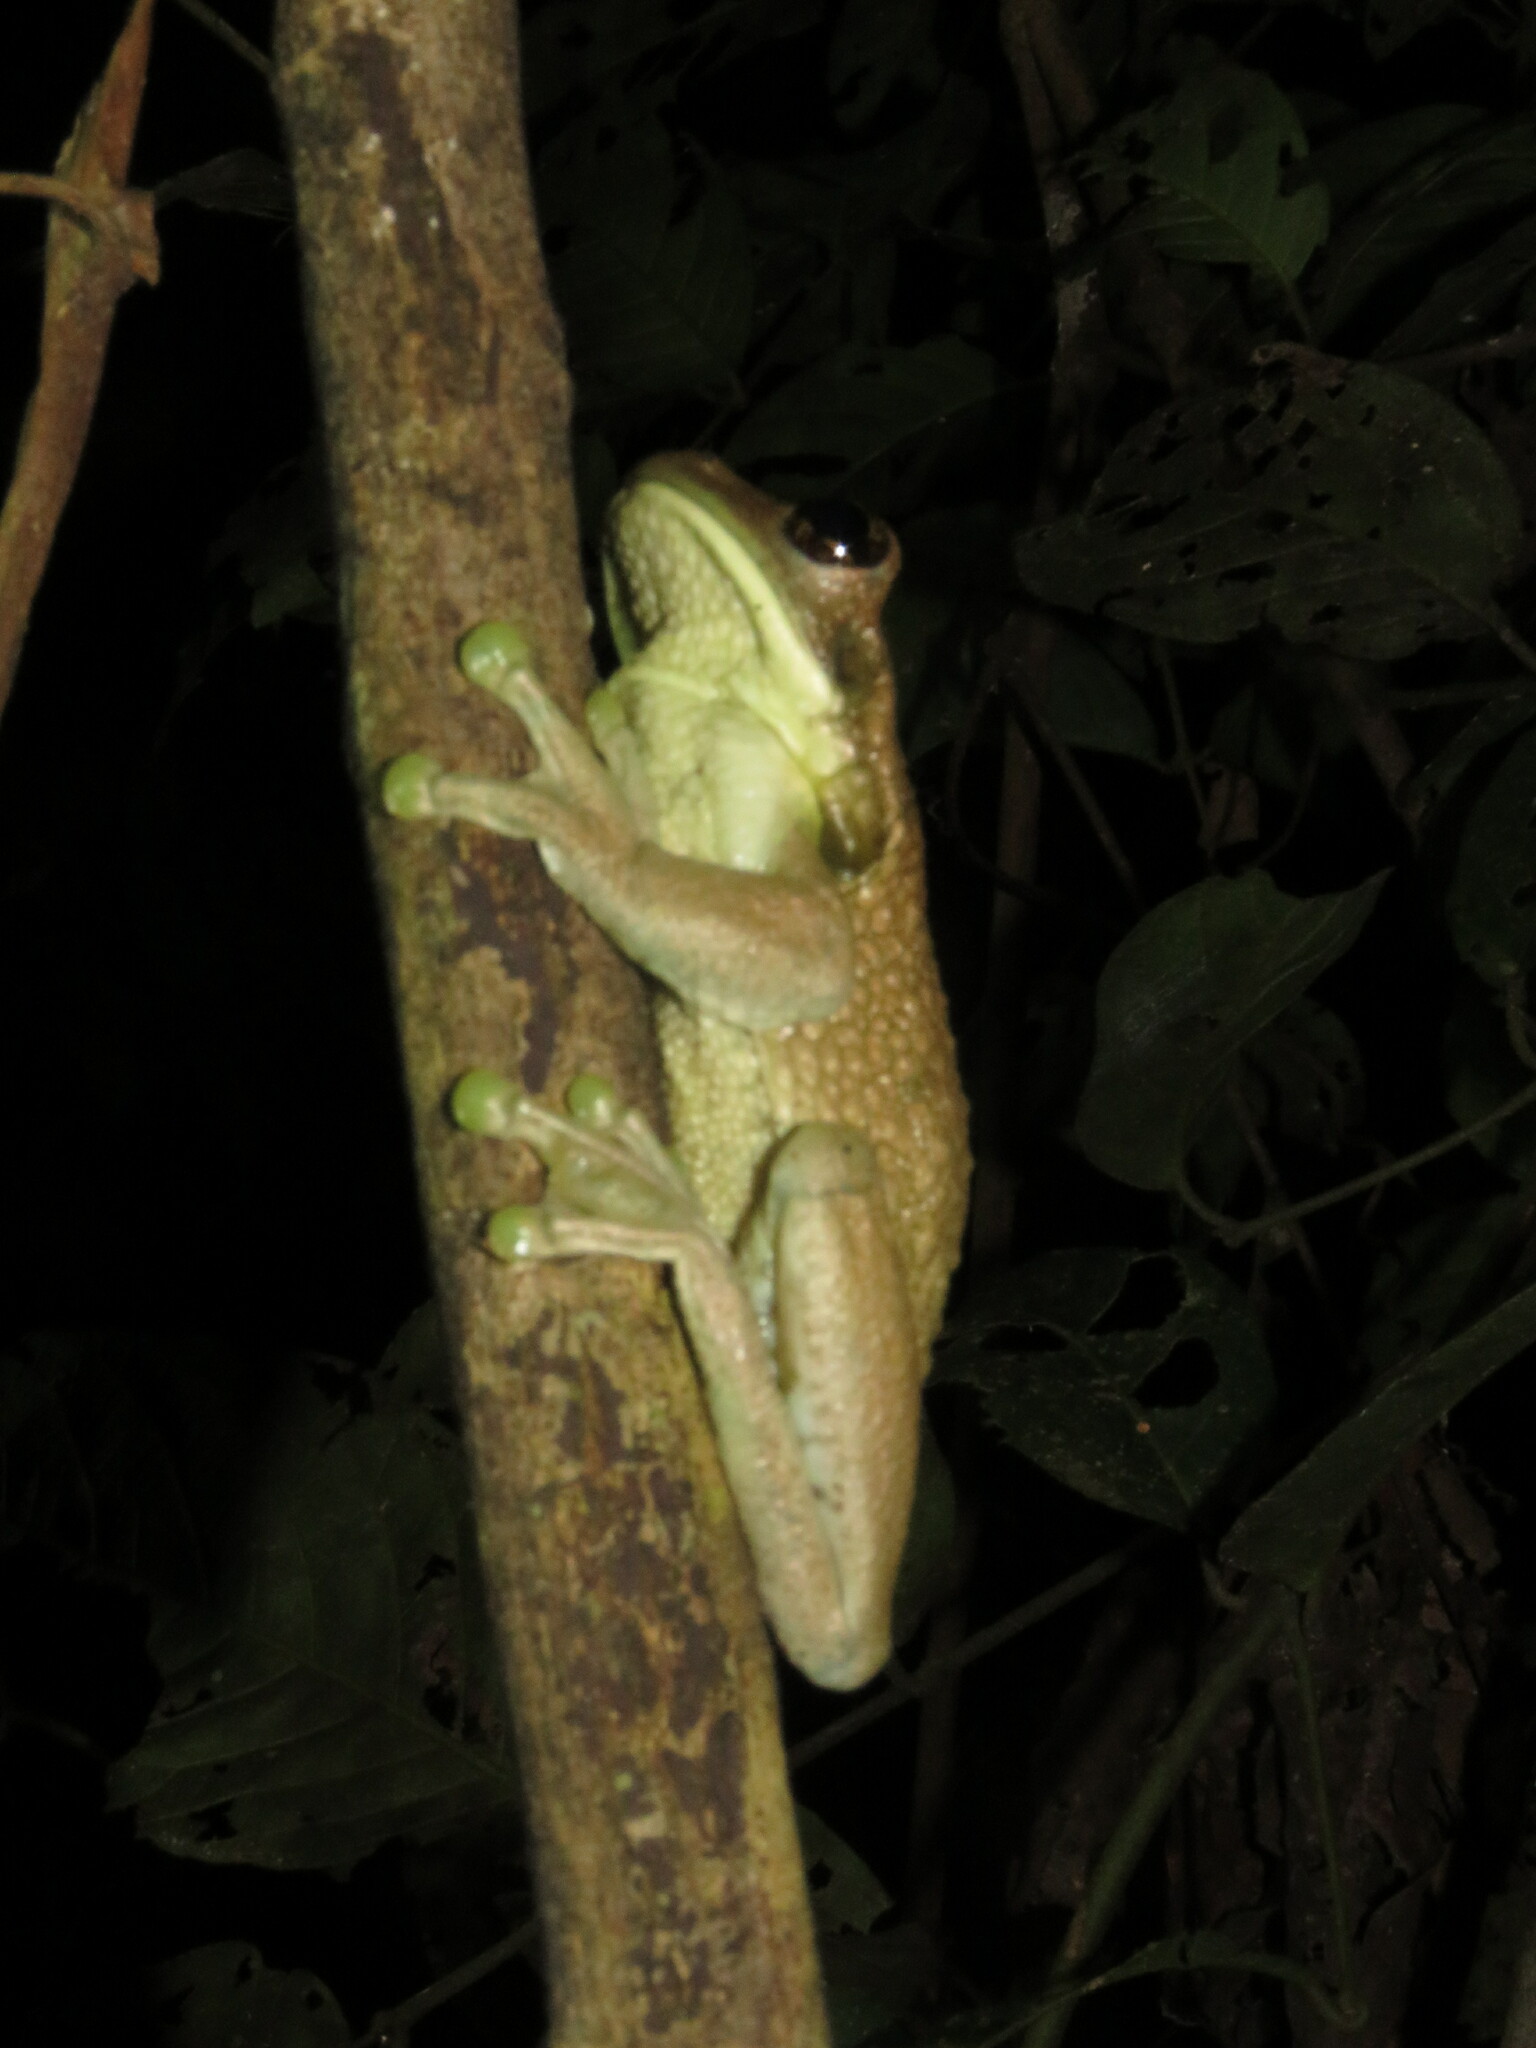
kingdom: Animalia
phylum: Chordata
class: Amphibia
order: Anura
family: Hylidae
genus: Trachycephalus
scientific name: Trachycephalus typhonius
